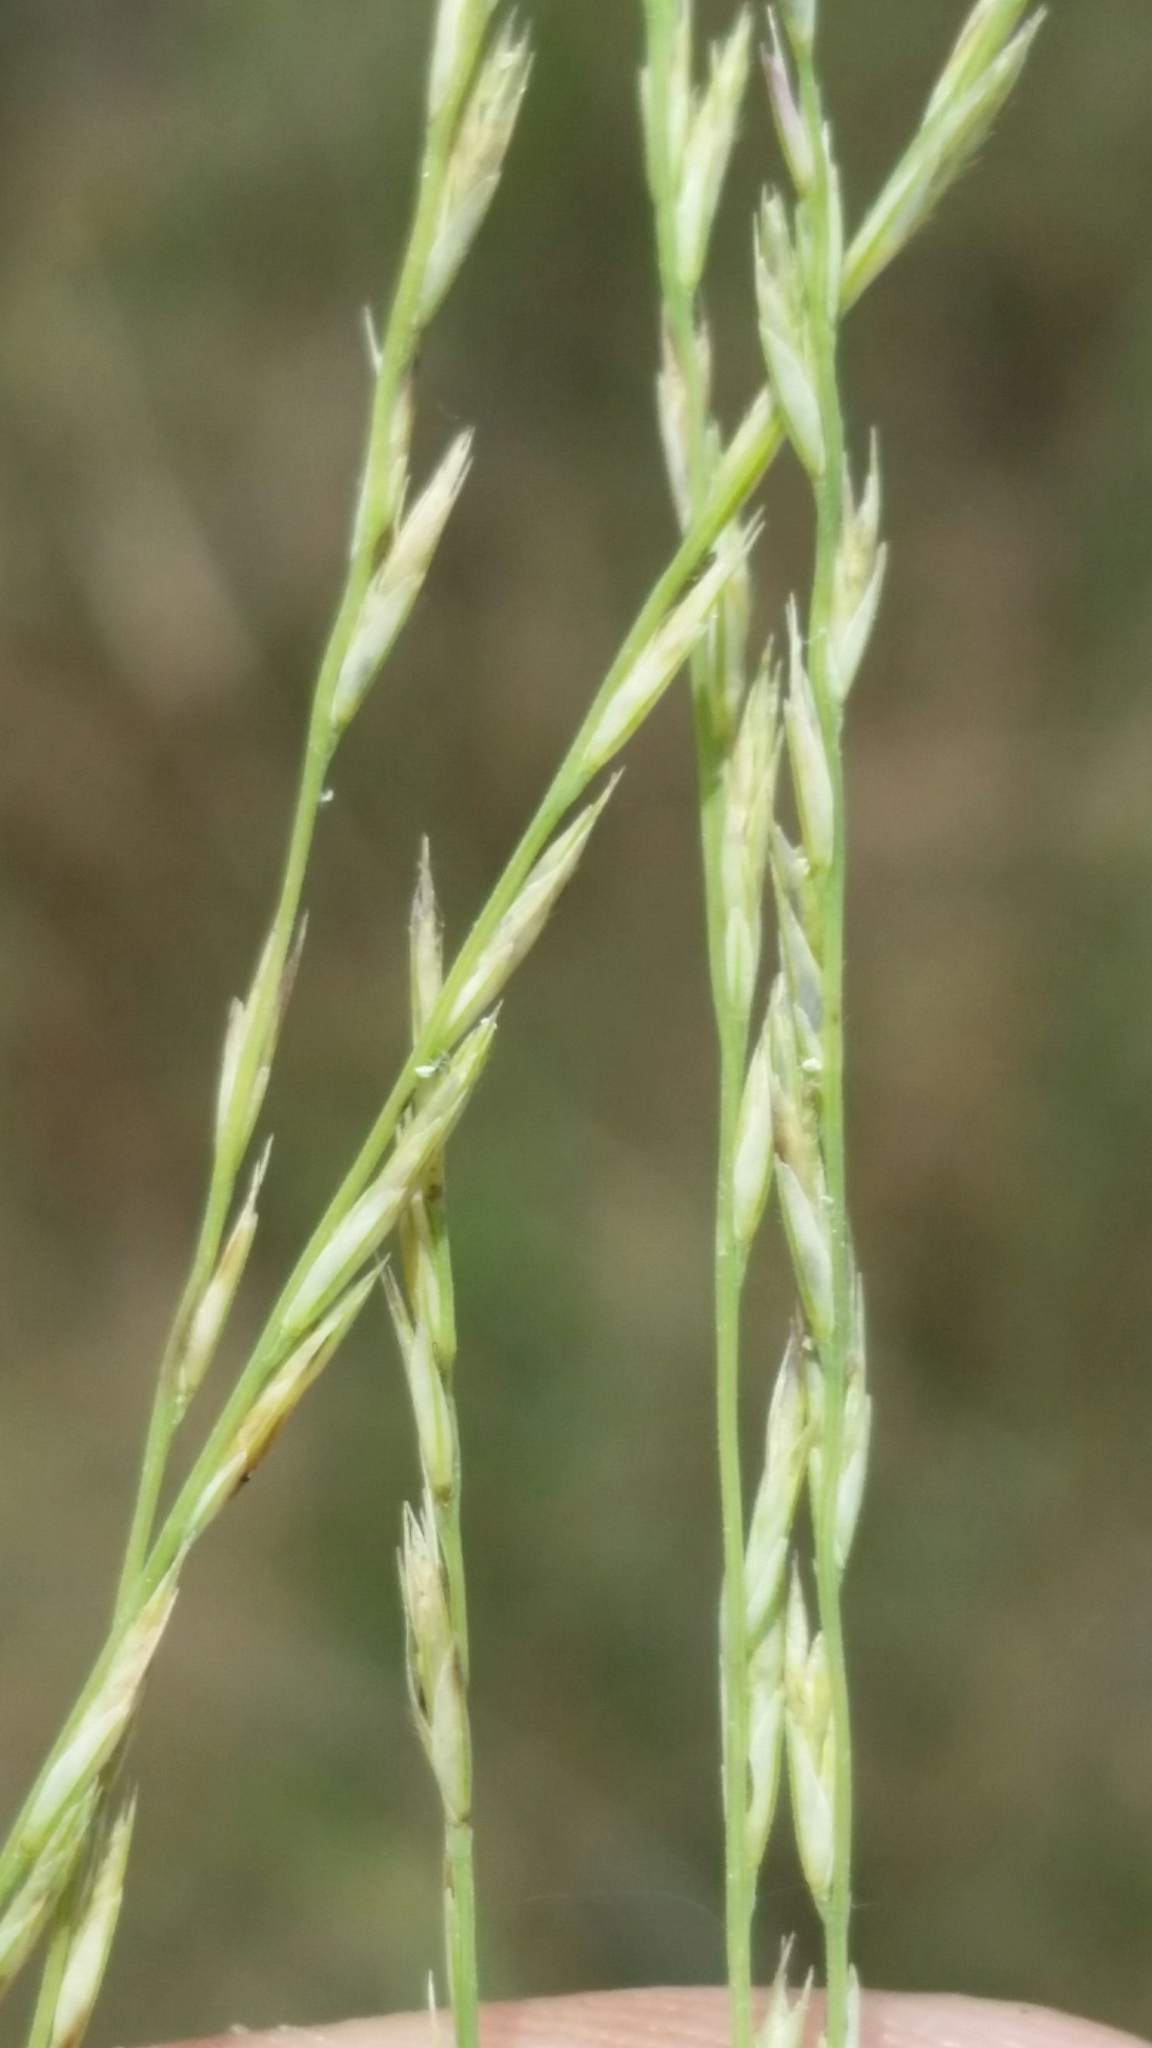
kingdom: Plantae
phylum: Tracheophyta
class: Liliopsida
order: Poales
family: Poaceae
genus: Diplachne
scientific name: Diplachne fusca
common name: Brown beetle grass
